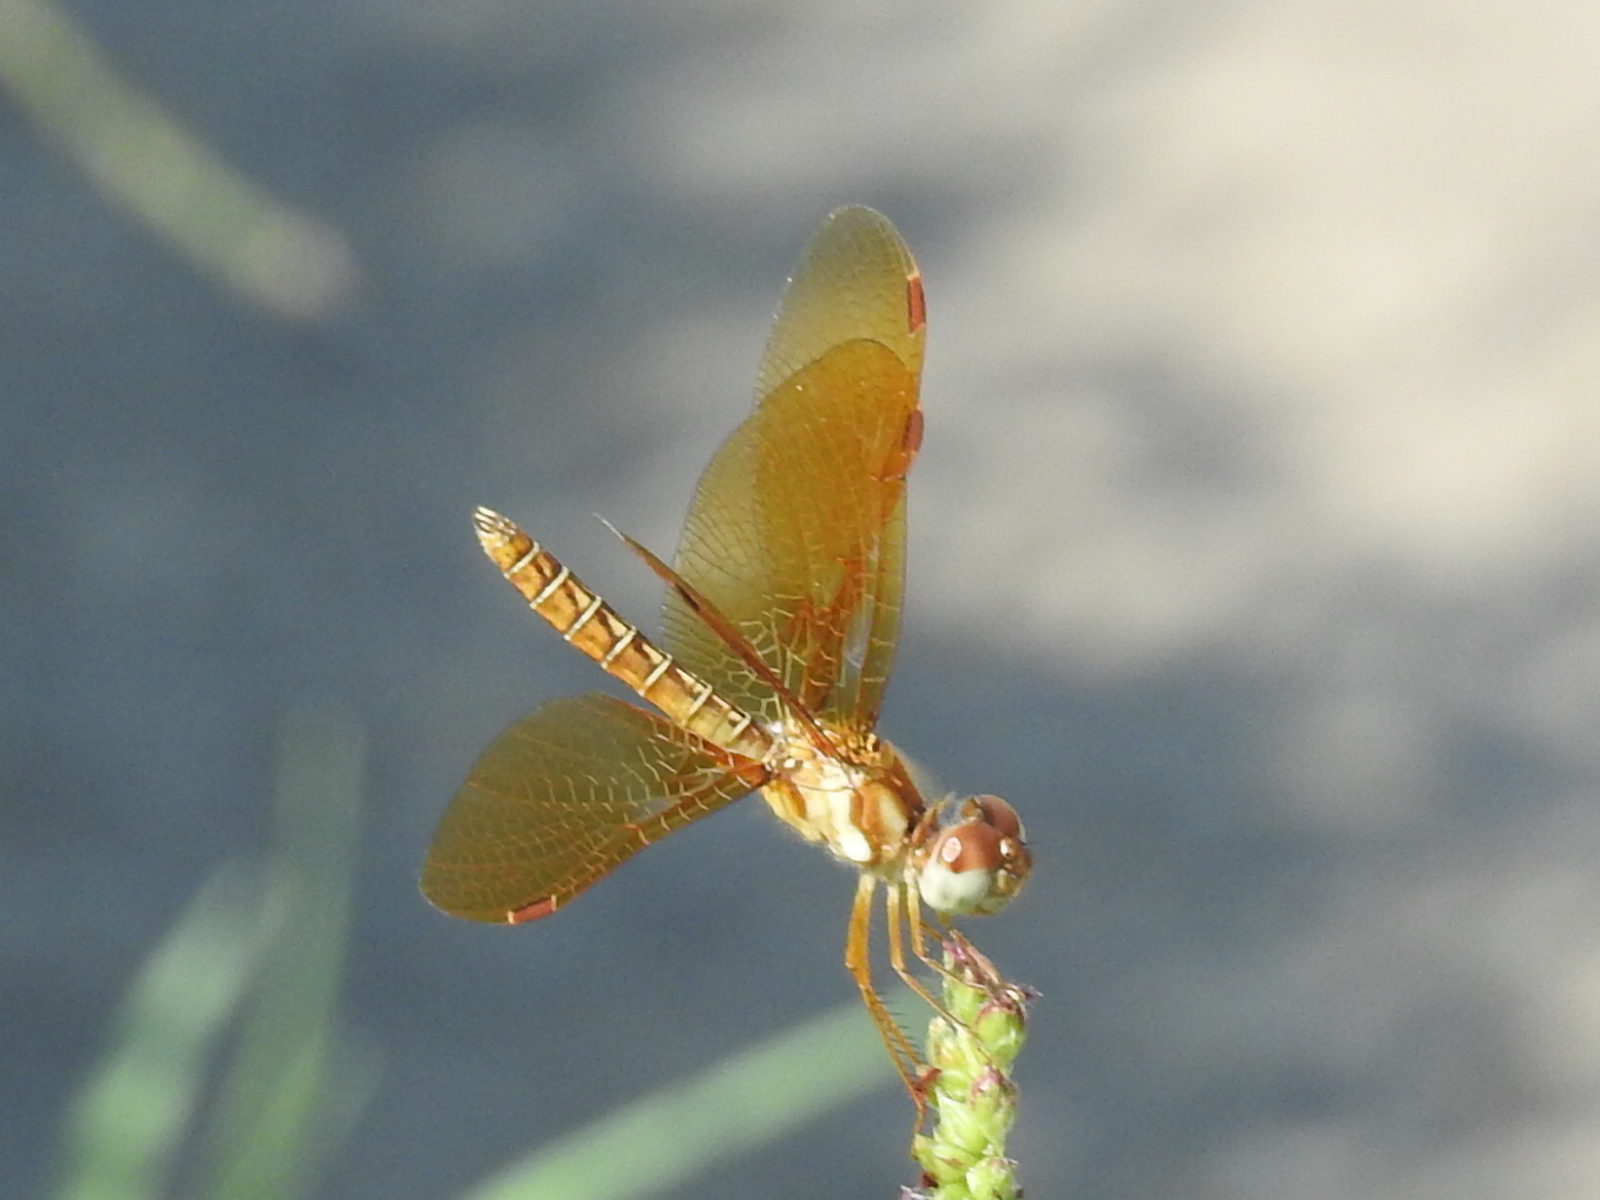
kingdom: Animalia
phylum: Arthropoda
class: Insecta
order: Odonata
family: Libellulidae
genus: Perithemis
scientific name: Perithemis tenera
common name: Eastern amberwing
